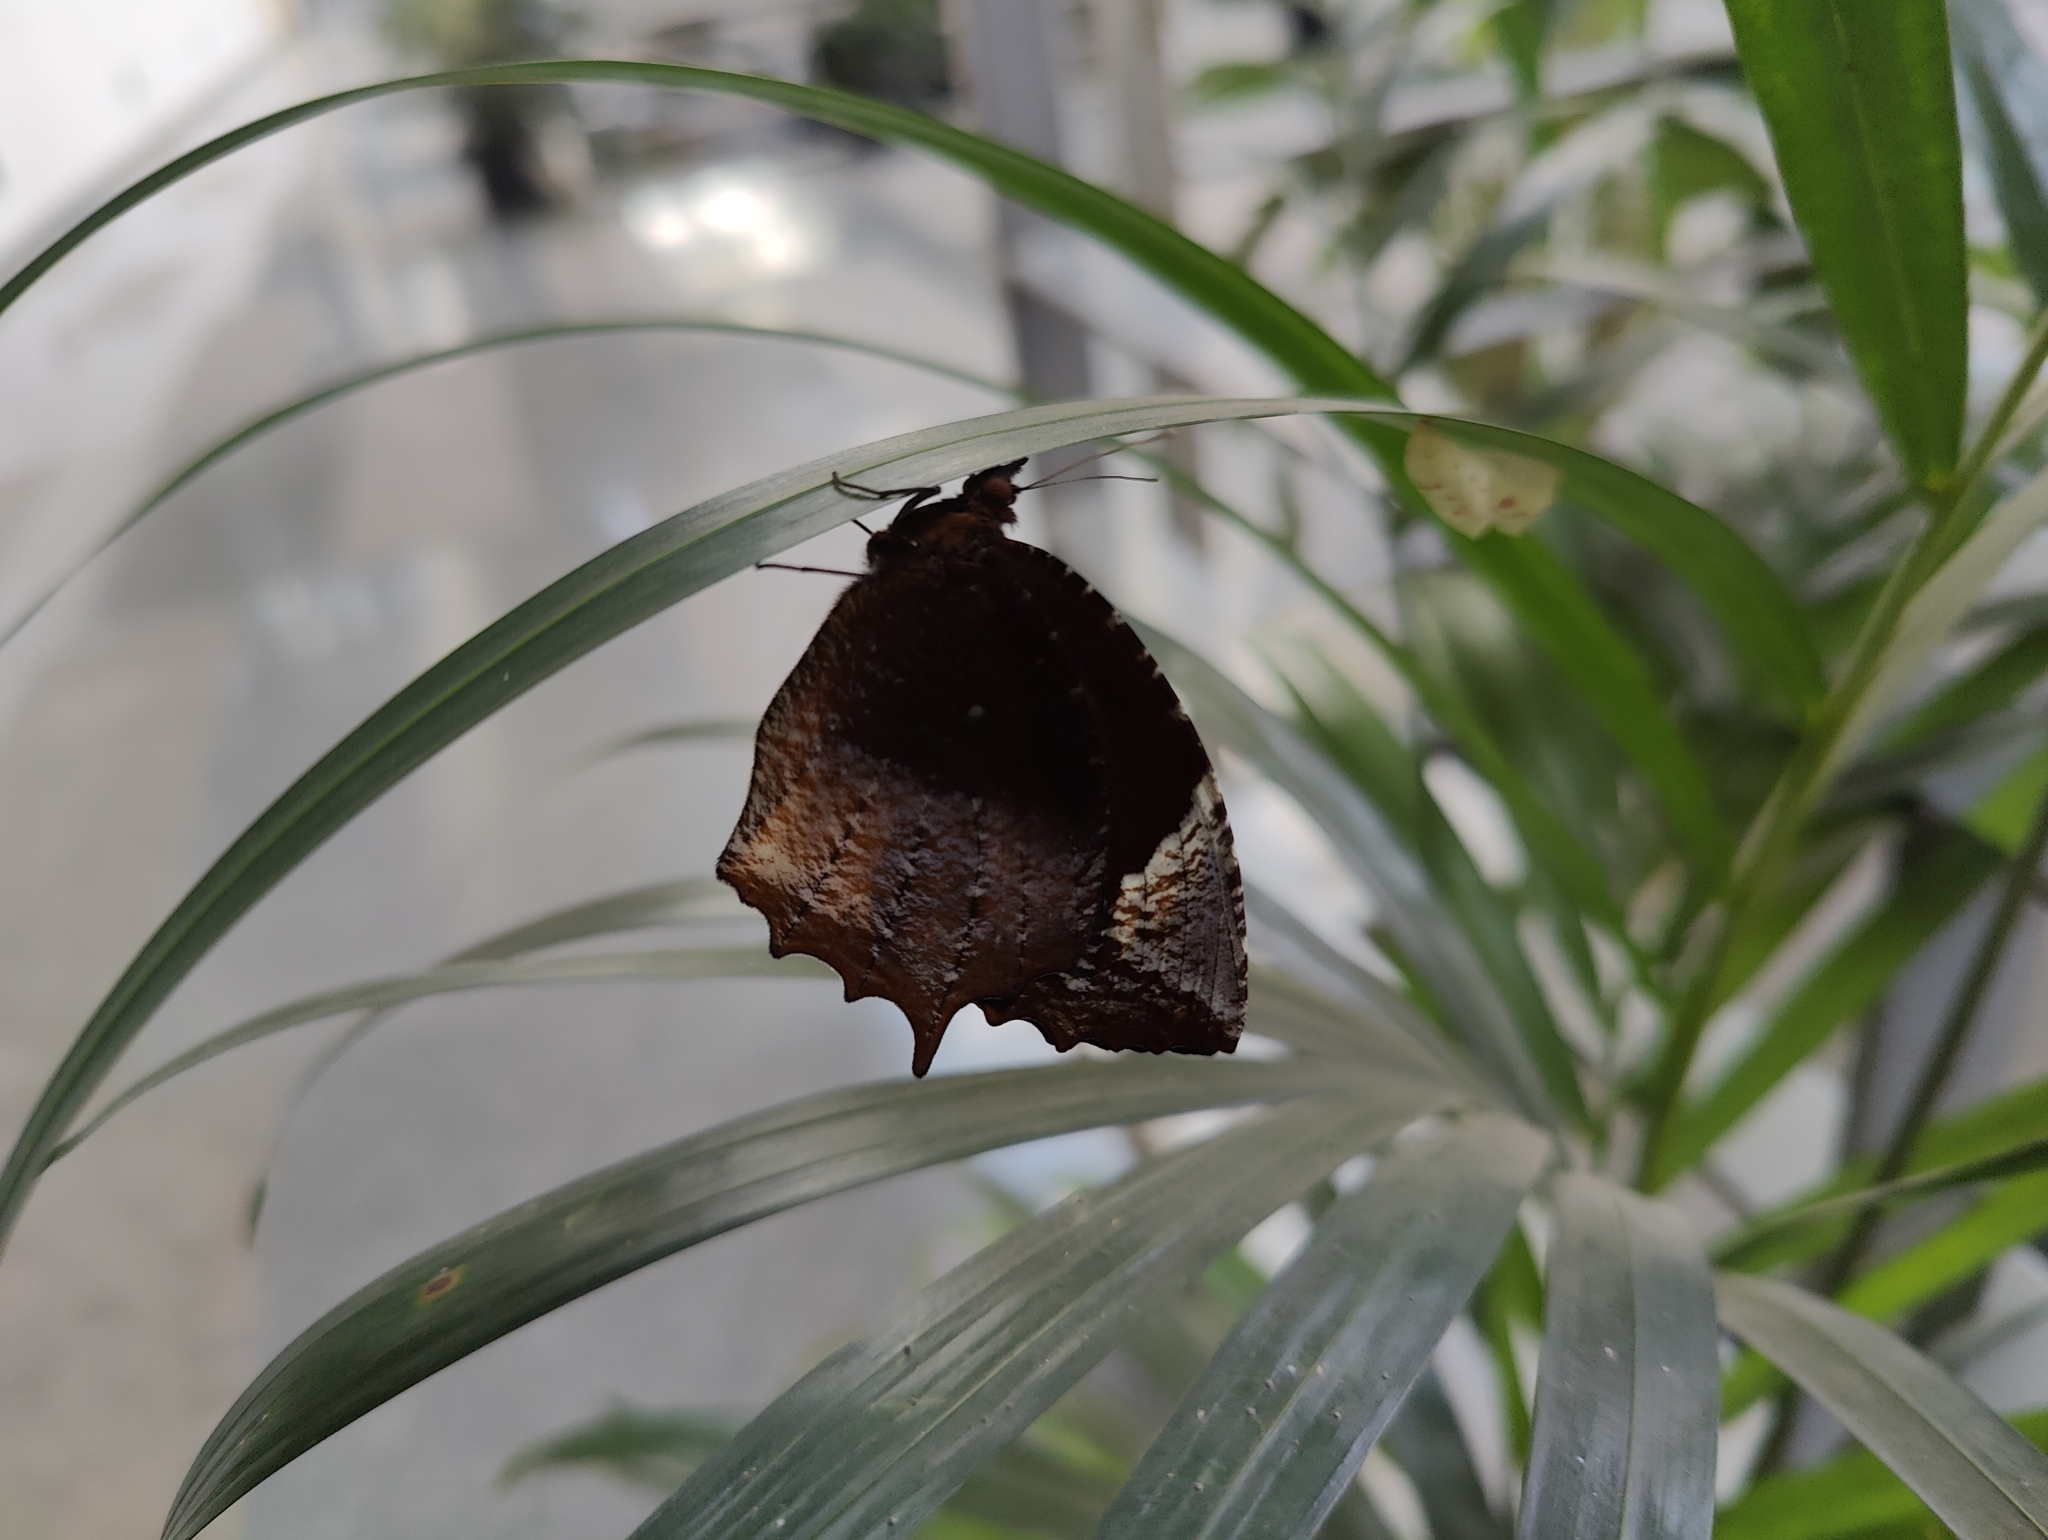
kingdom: Animalia
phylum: Arthropoda
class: Insecta
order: Lepidoptera
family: Nymphalidae
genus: Elymnias
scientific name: Elymnias caudata
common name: Tailed palmfly
